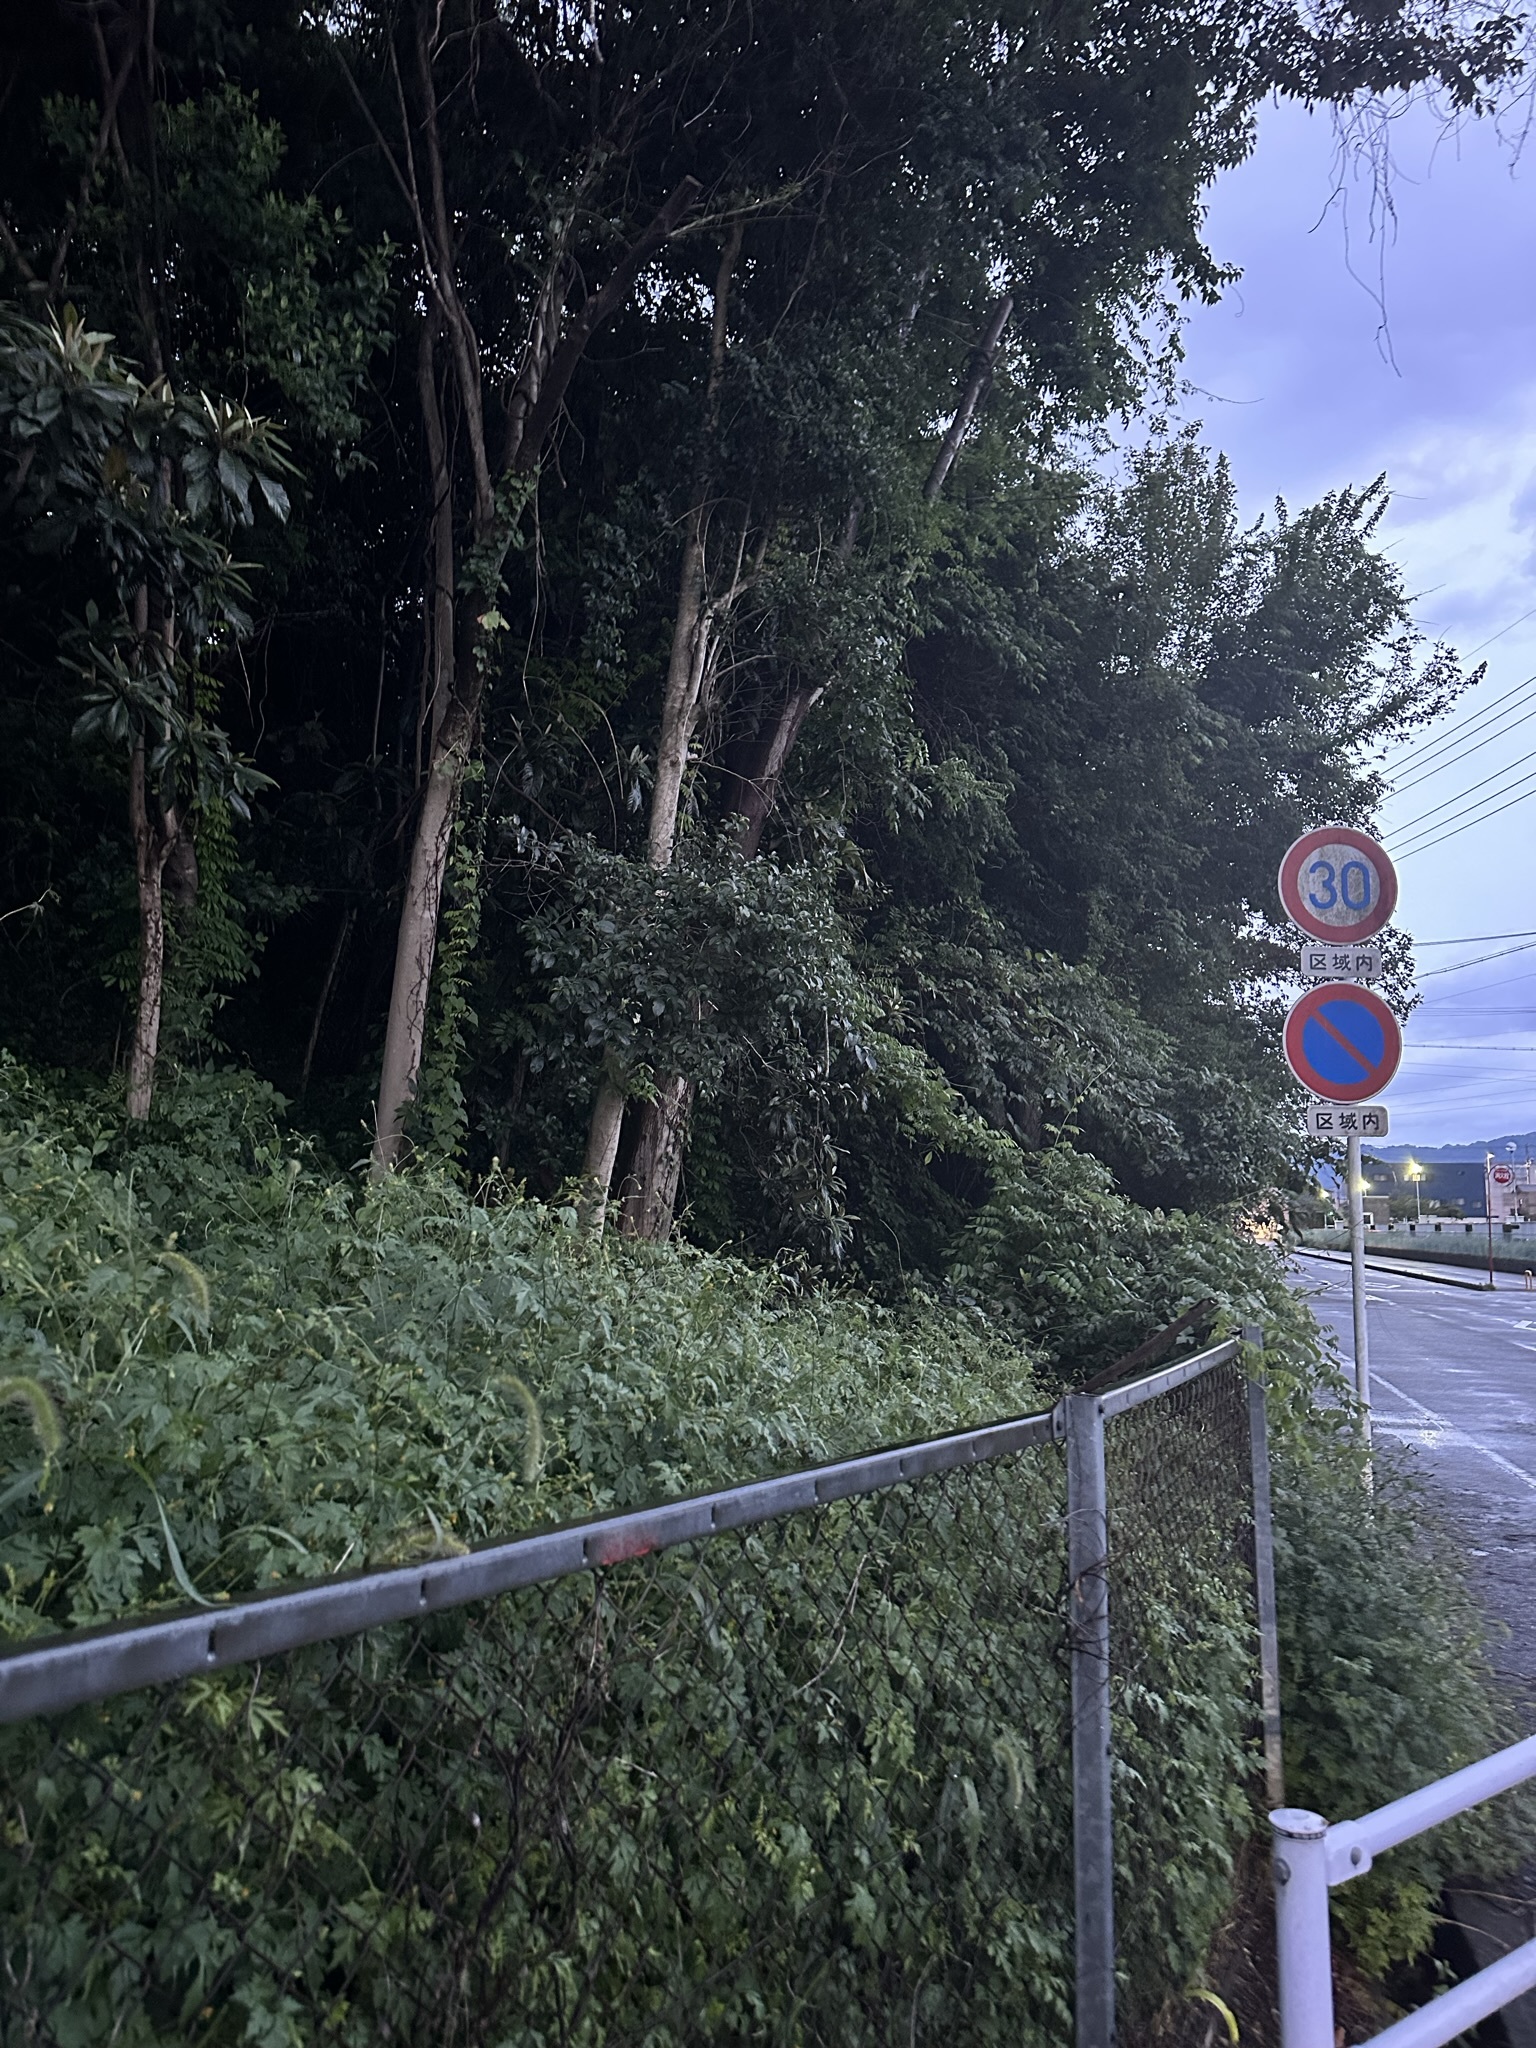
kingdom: Animalia
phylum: Arthropoda
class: Insecta
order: Orthoptera
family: Gryllidae
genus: Truljalia
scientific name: Truljalia hibinonis
